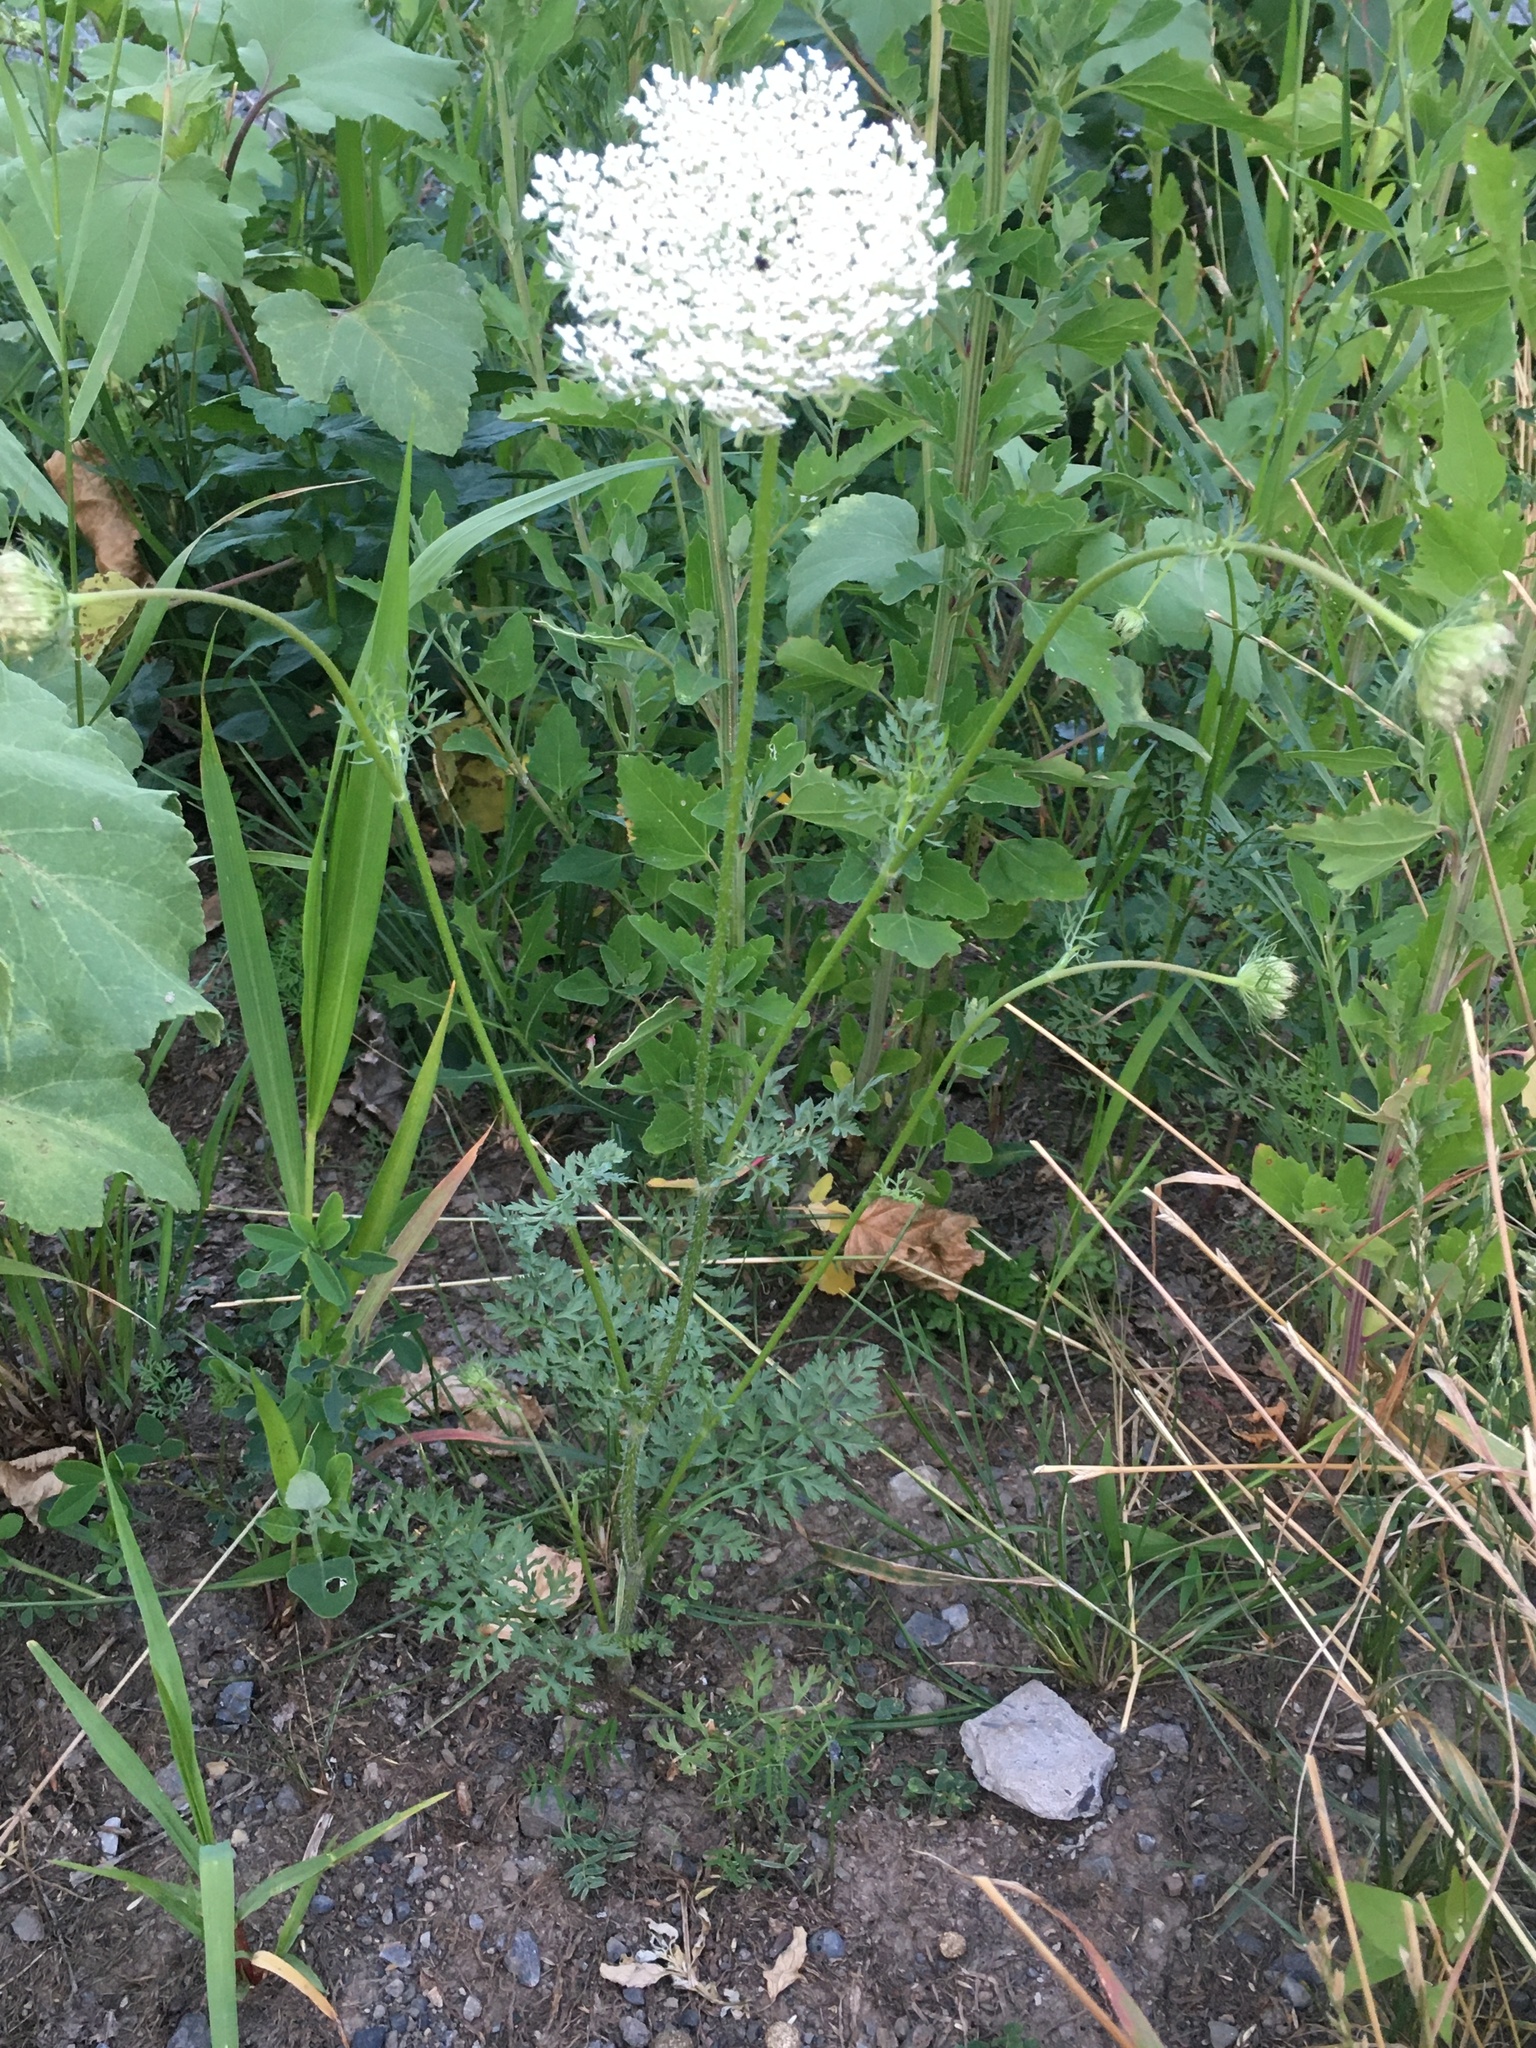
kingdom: Plantae
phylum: Tracheophyta
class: Magnoliopsida
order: Apiales
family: Apiaceae
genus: Daucus
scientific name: Daucus carota
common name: Wild carrot
